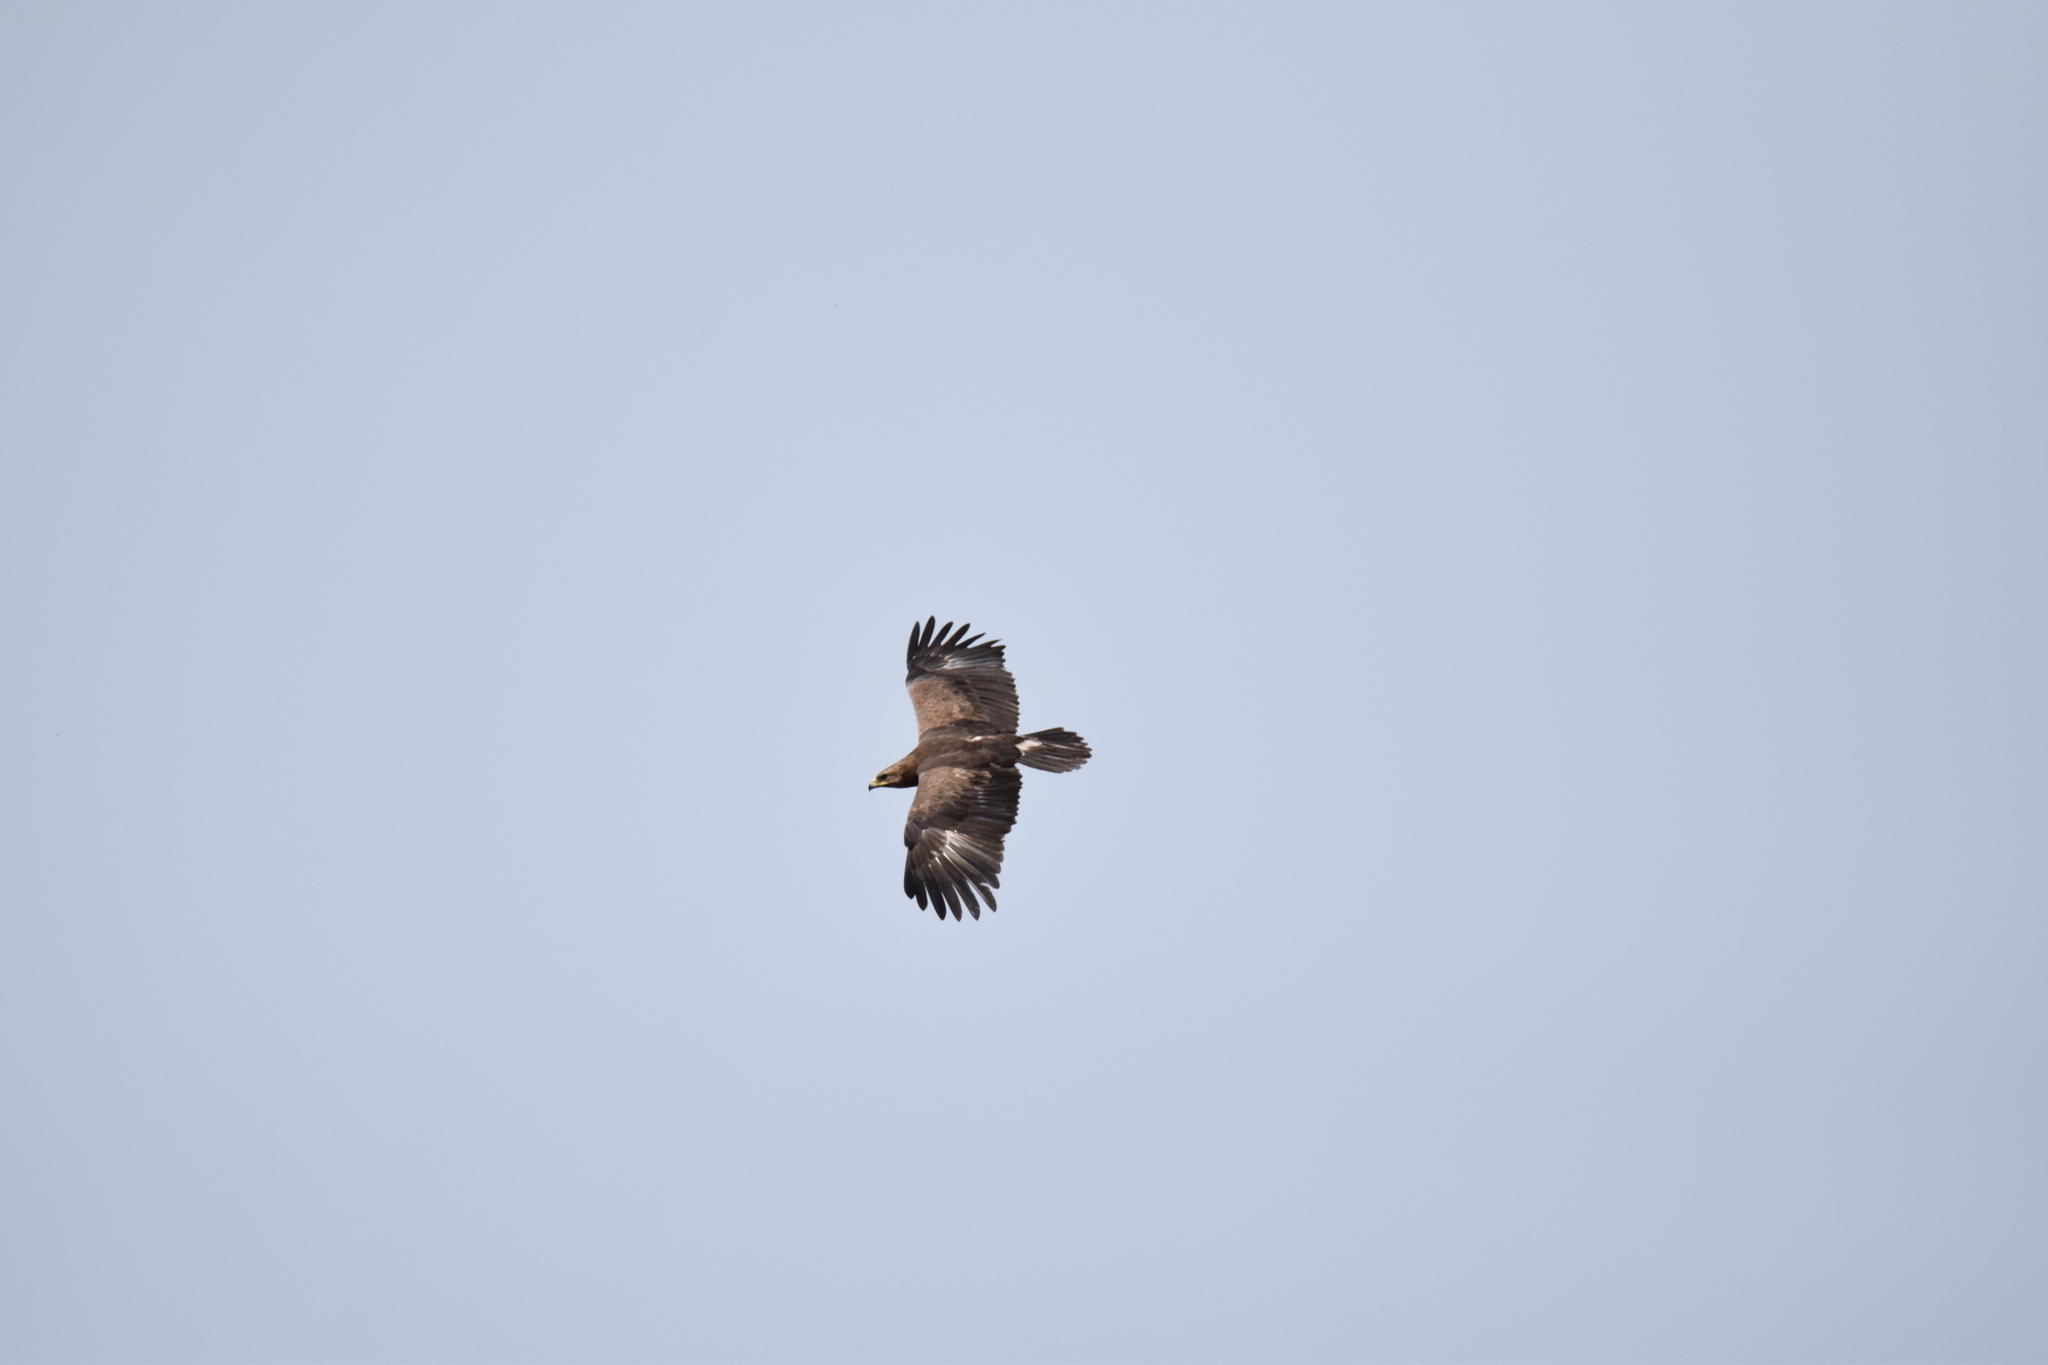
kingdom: Animalia
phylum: Chordata
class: Aves
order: Accipitriformes
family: Accipitridae
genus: Aquila
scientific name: Aquila pomarina
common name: Lesser spotted eagle
